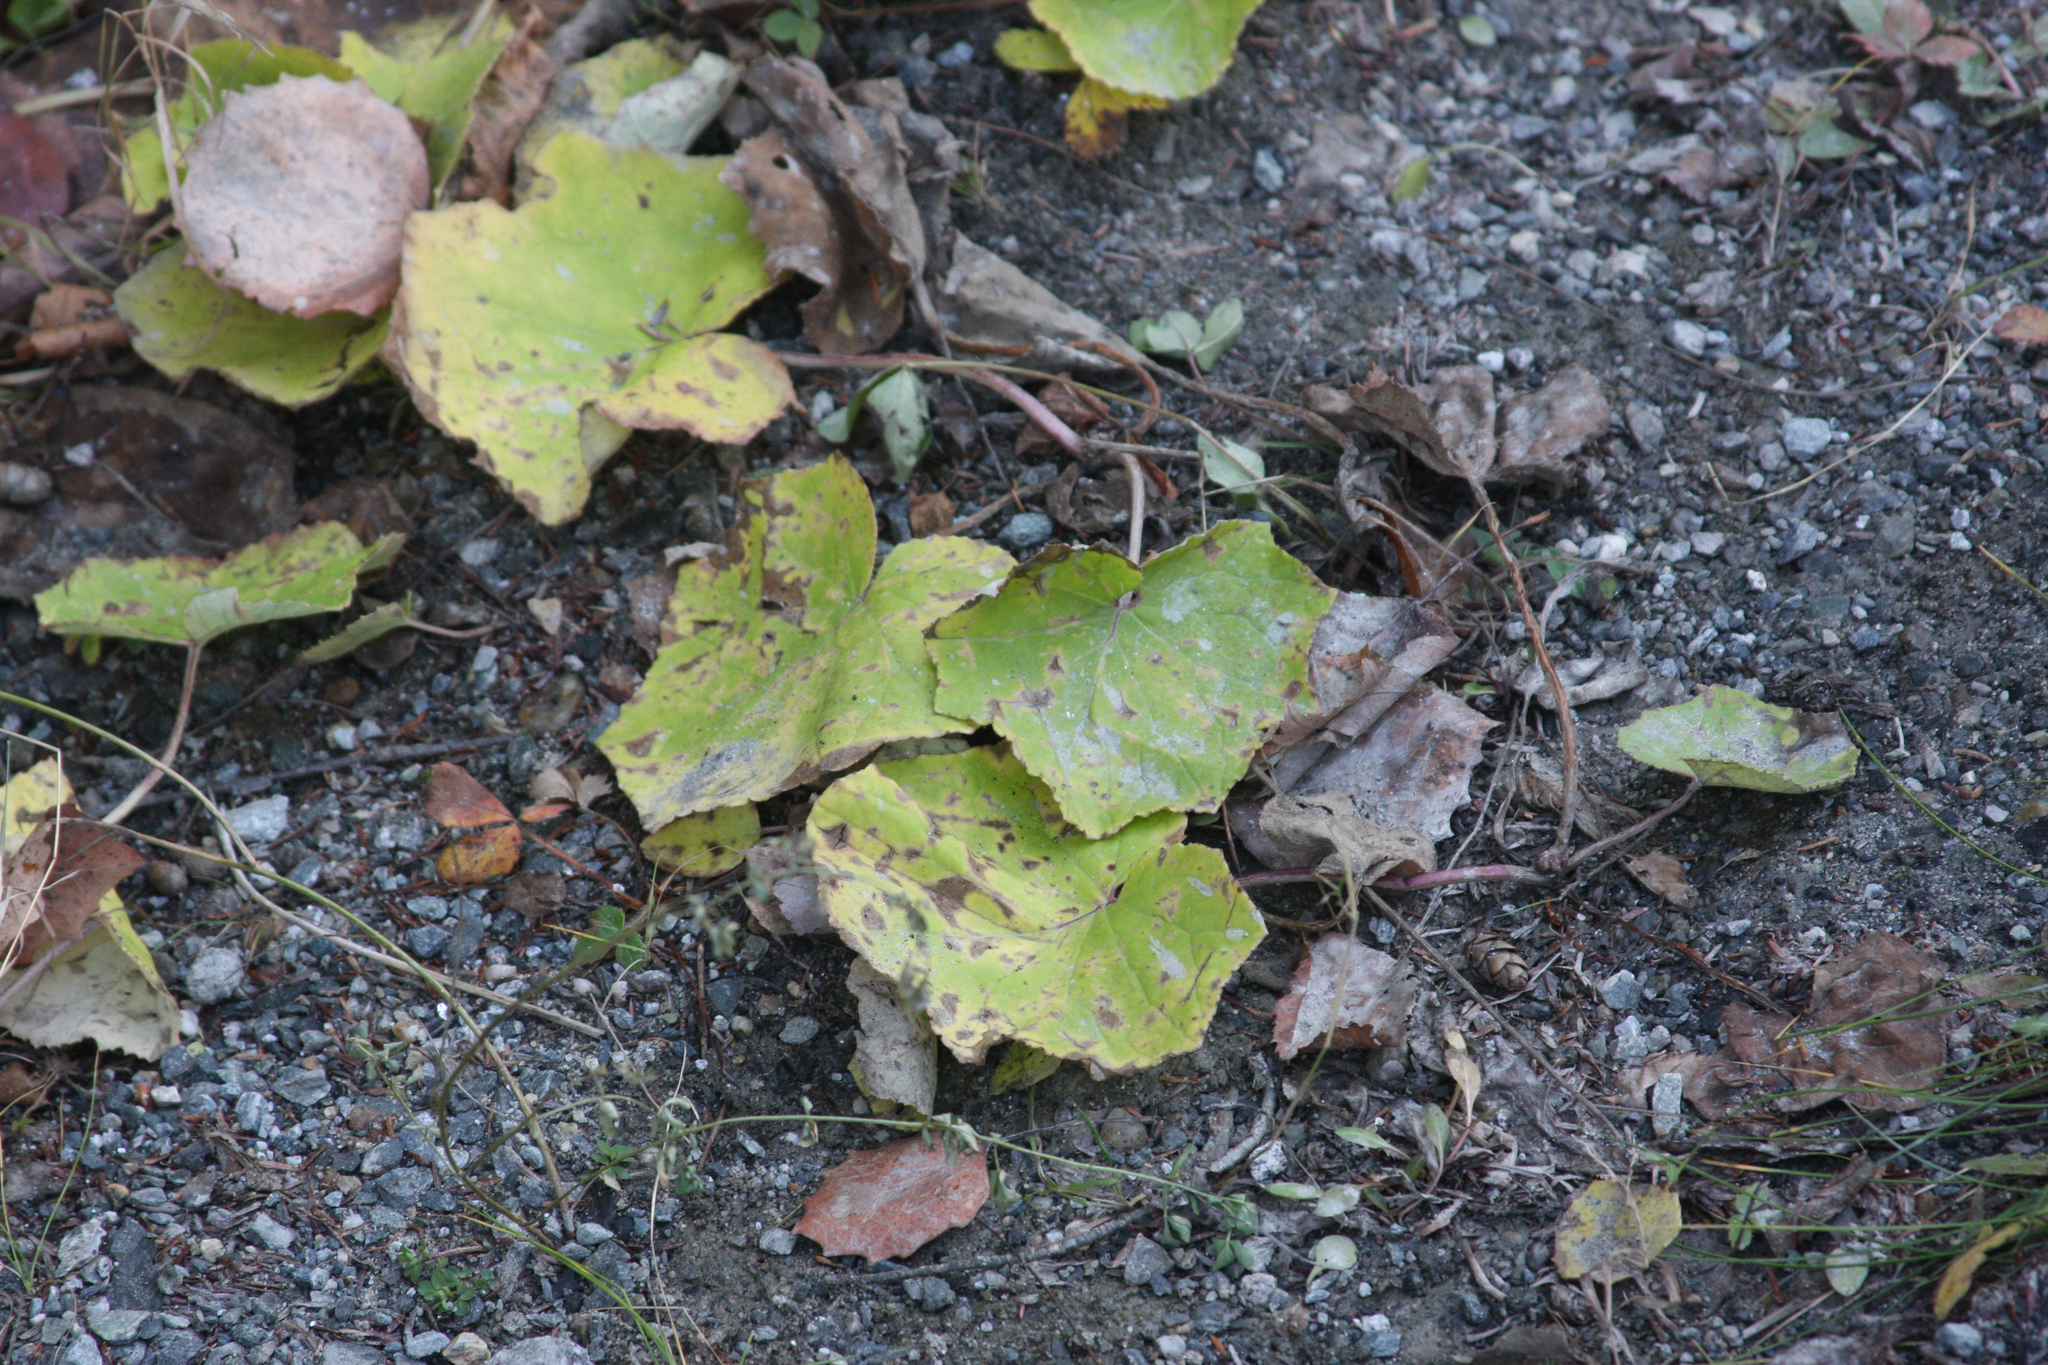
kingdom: Plantae
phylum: Tracheophyta
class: Magnoliopsida
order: Asterales
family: Asteraceae
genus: Tussilago
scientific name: Tussilago farfara
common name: Coltsfoot
